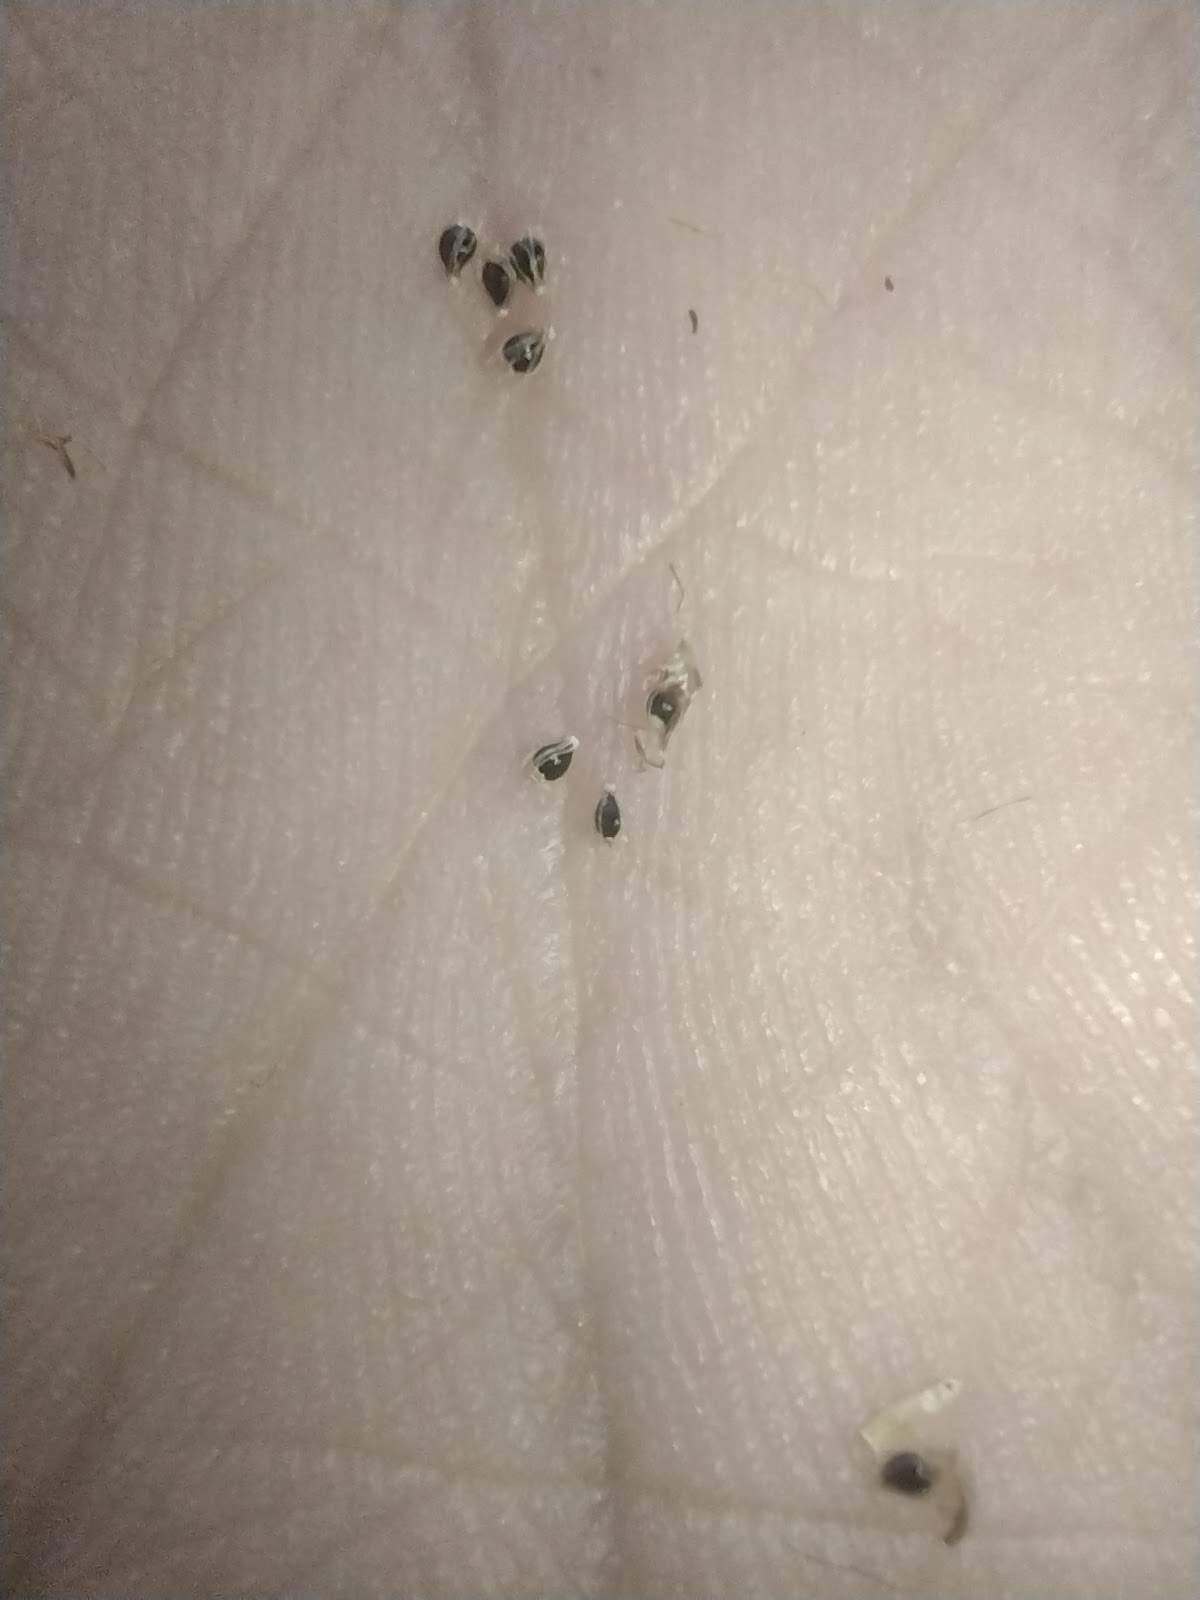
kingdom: Plantae
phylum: Tracheophyta
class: Liliopsida
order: Poales
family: Cyperaceae
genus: Eleocharis
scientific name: Eleocharis geniculata
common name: Canada spikesedge
